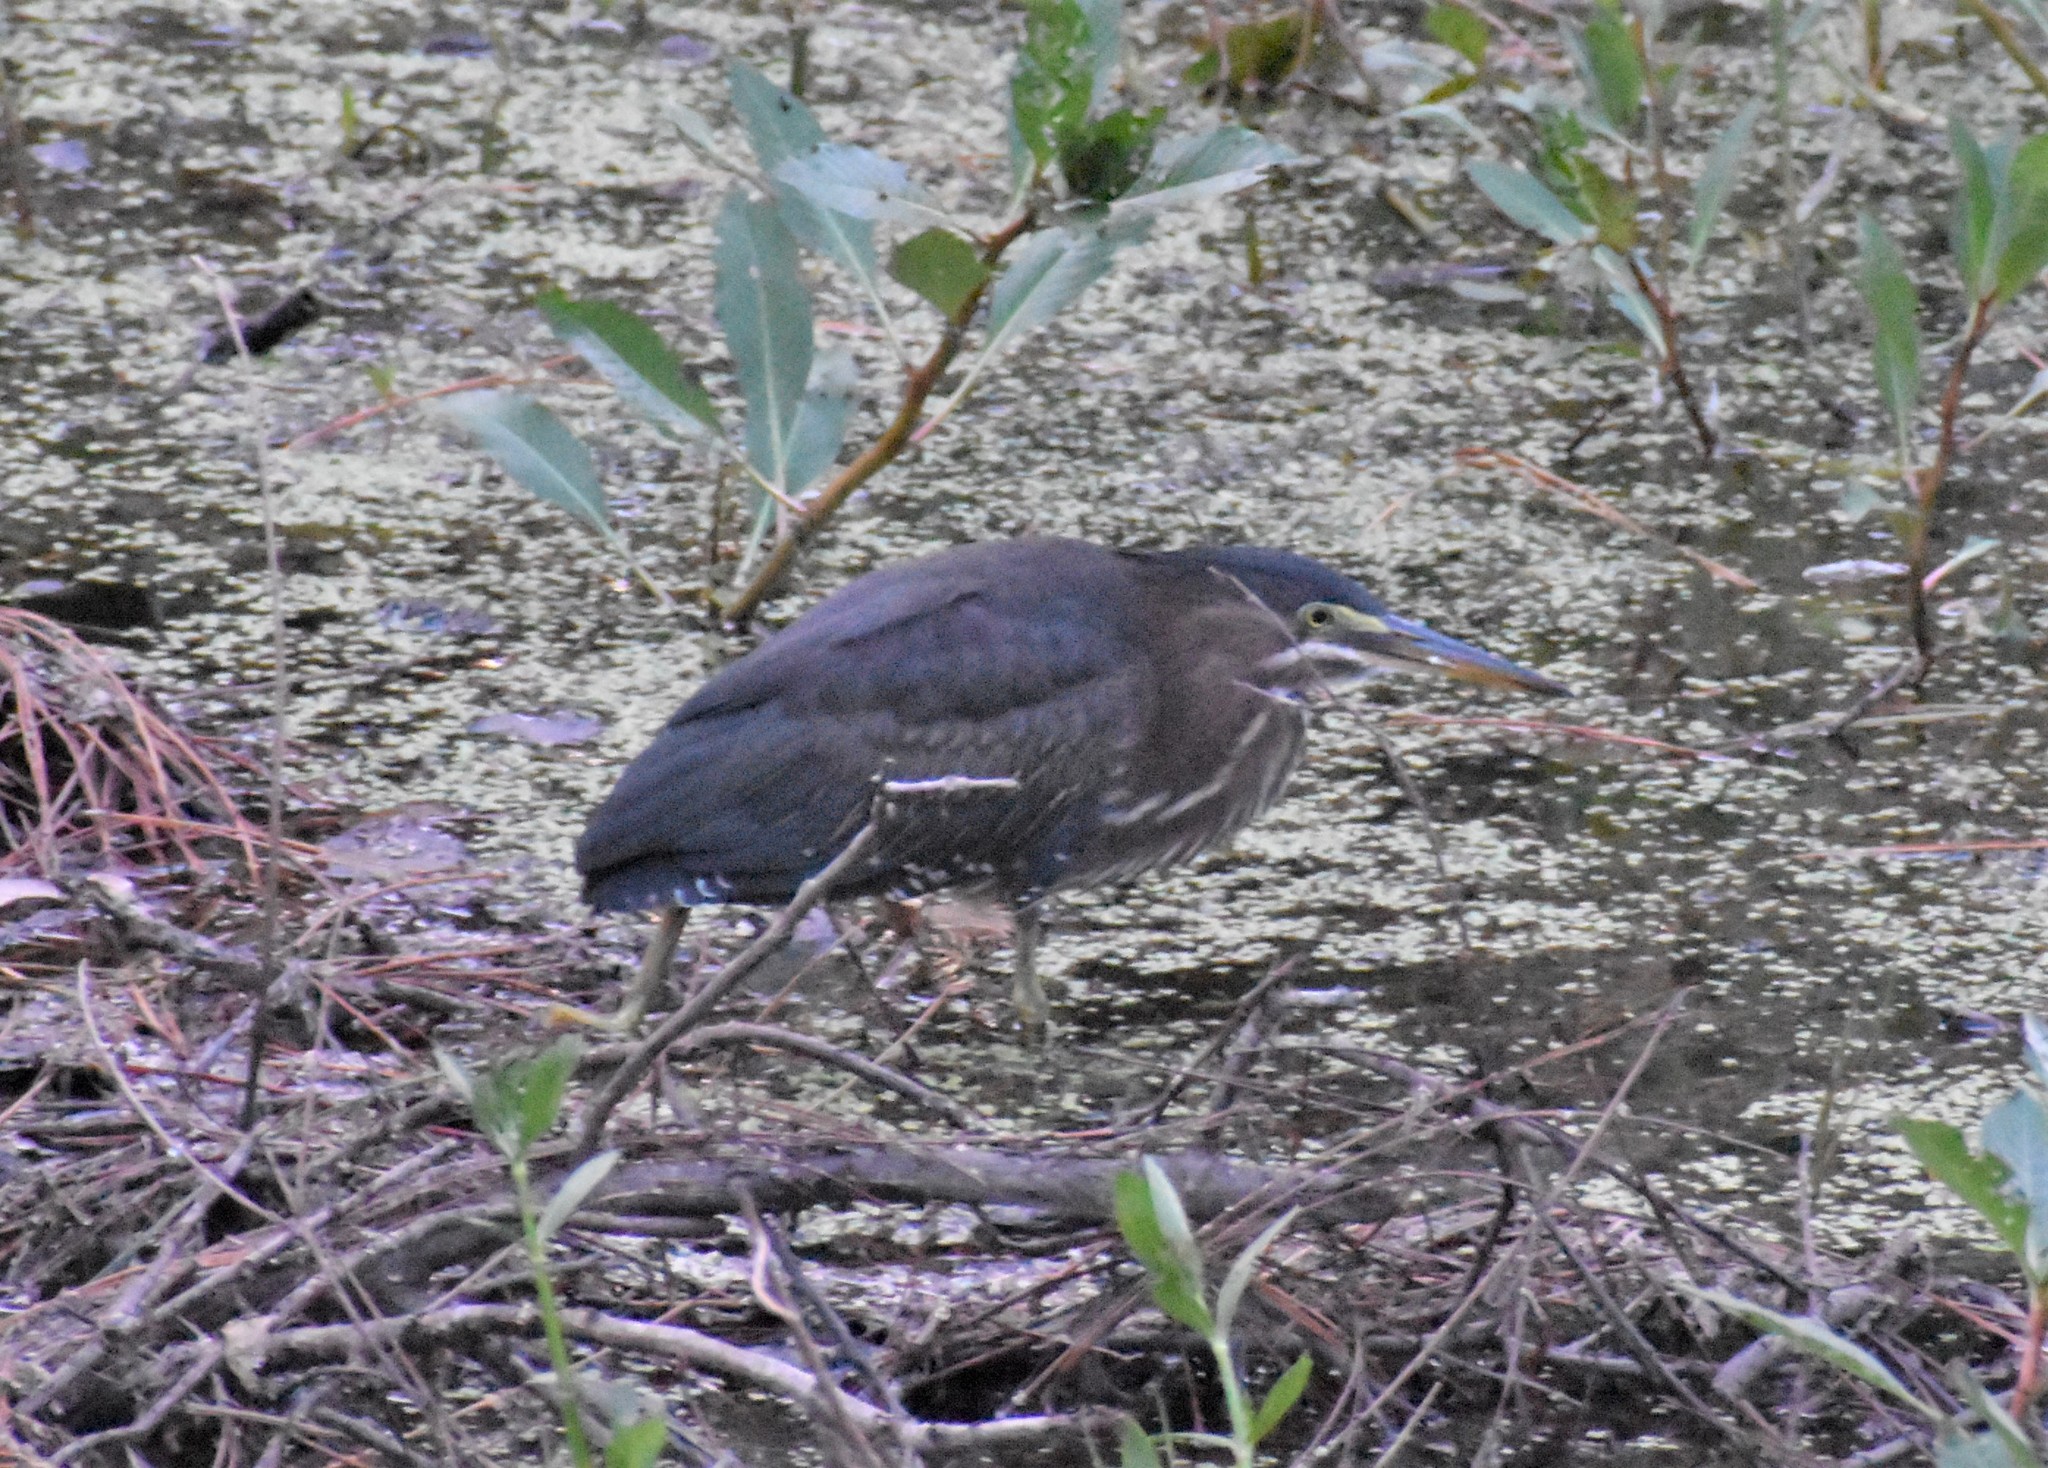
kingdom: Animalia
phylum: Chordata
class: Aves
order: Pelecaniformes
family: Ardeidae
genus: Butorides
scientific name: Butorides virescens
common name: Green heron
